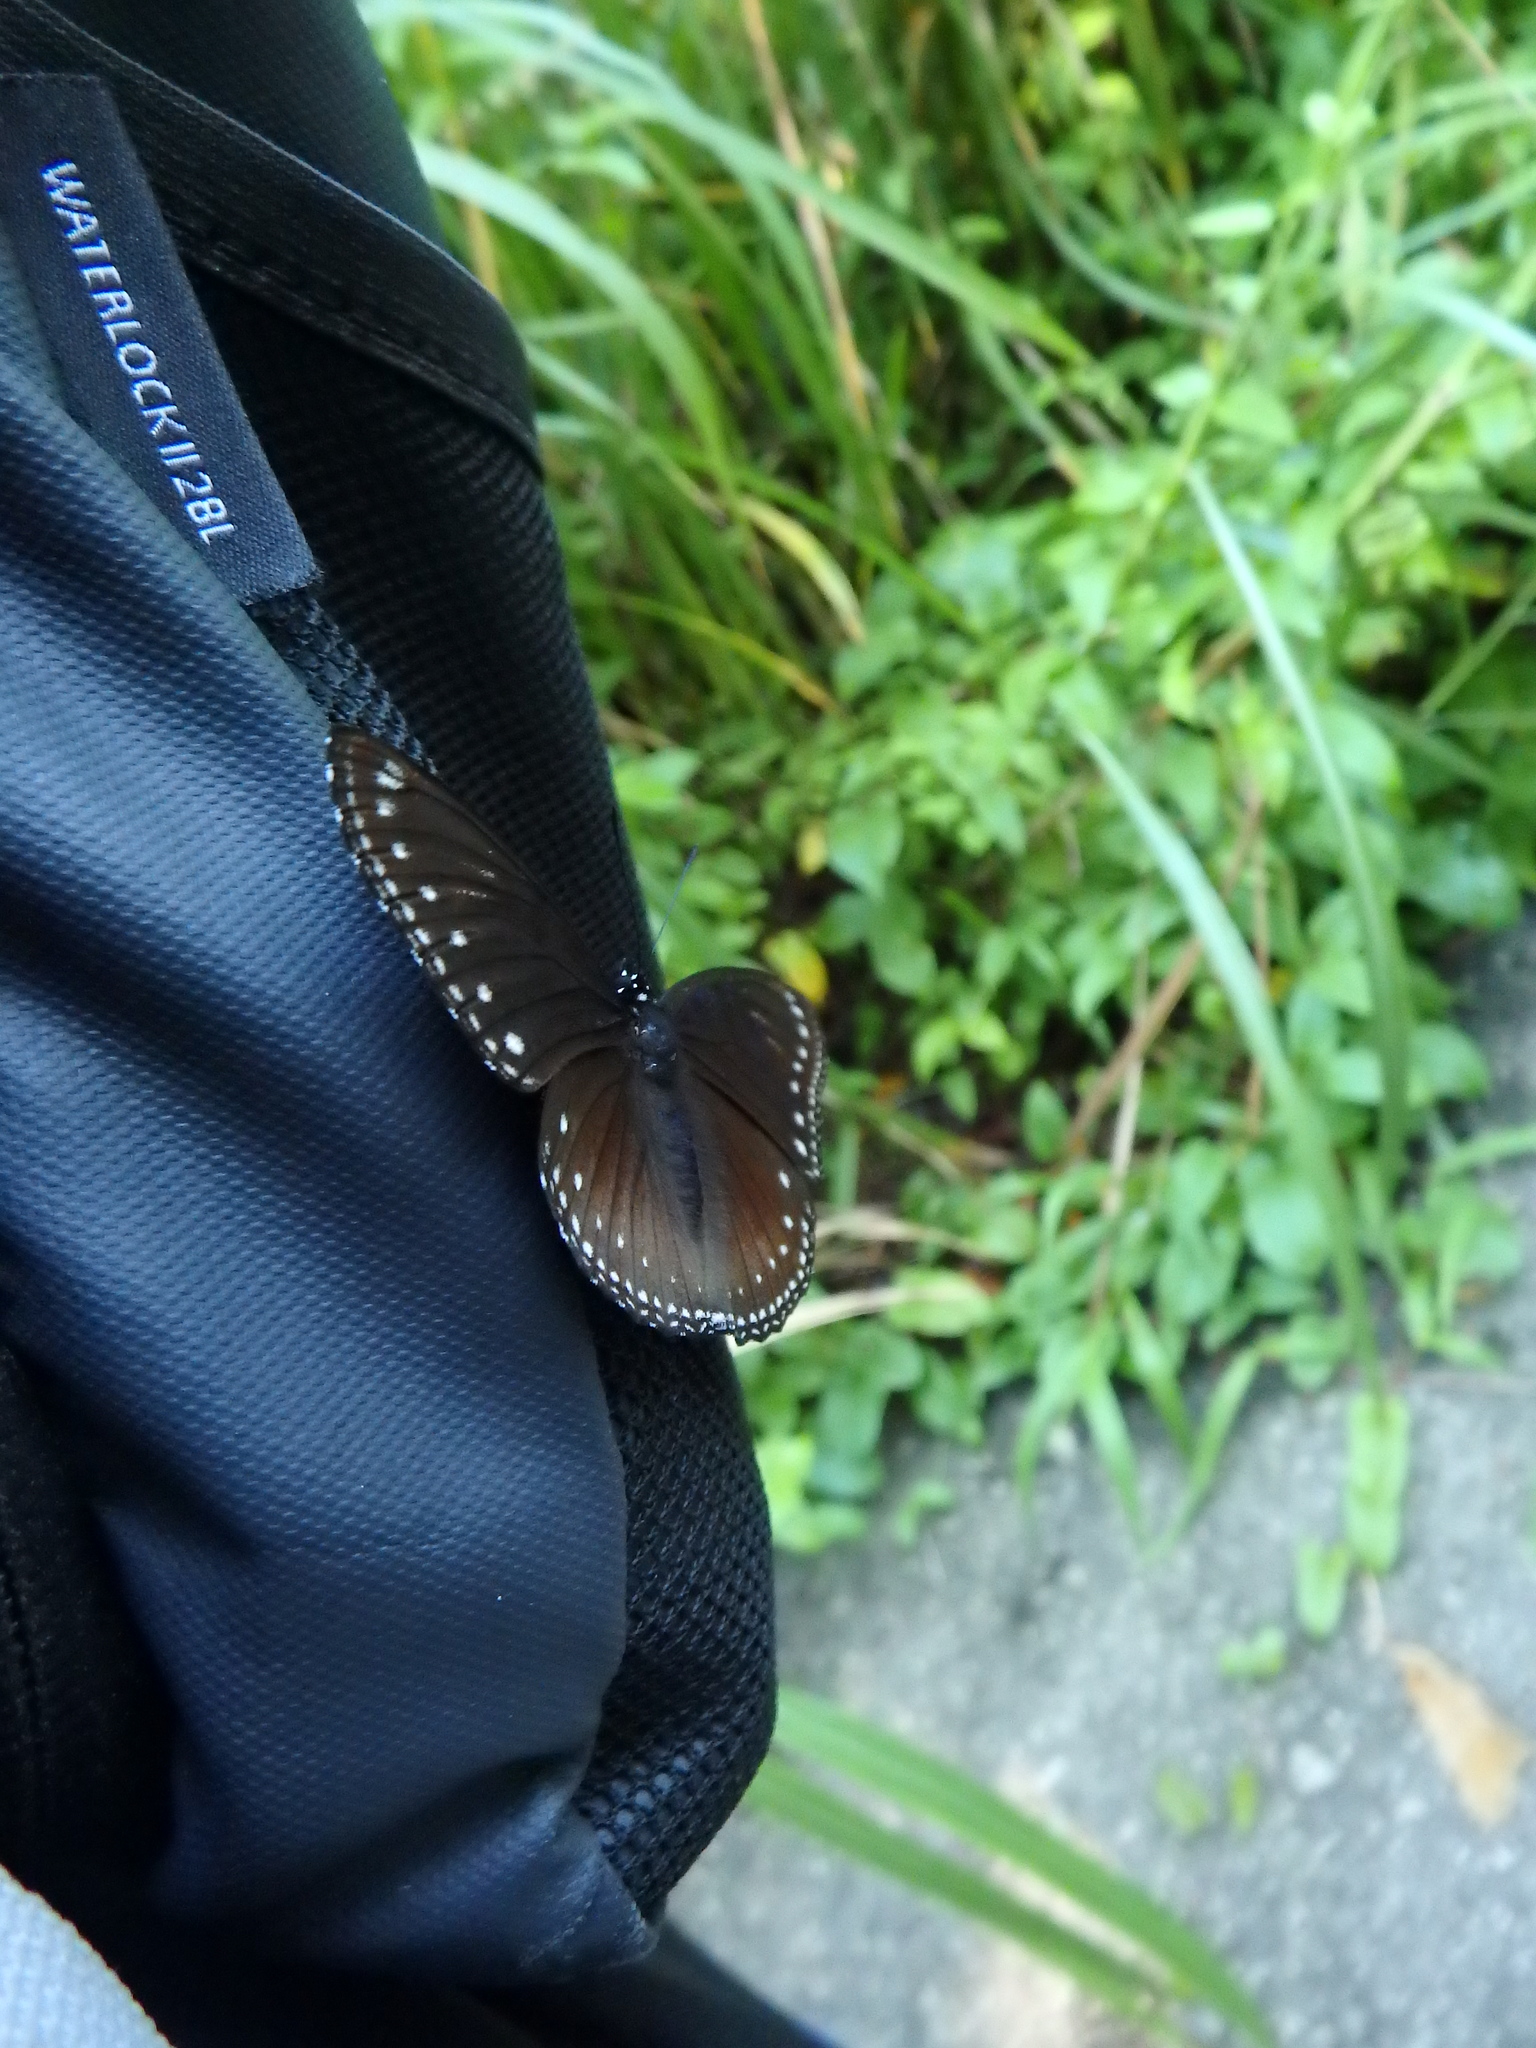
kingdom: Animalia
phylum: Arthropoda
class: Insecta
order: Lepidoptera
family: Nymphalidae
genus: Hypolimnas
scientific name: Hypolimnas anomala
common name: Malayan eggfly
